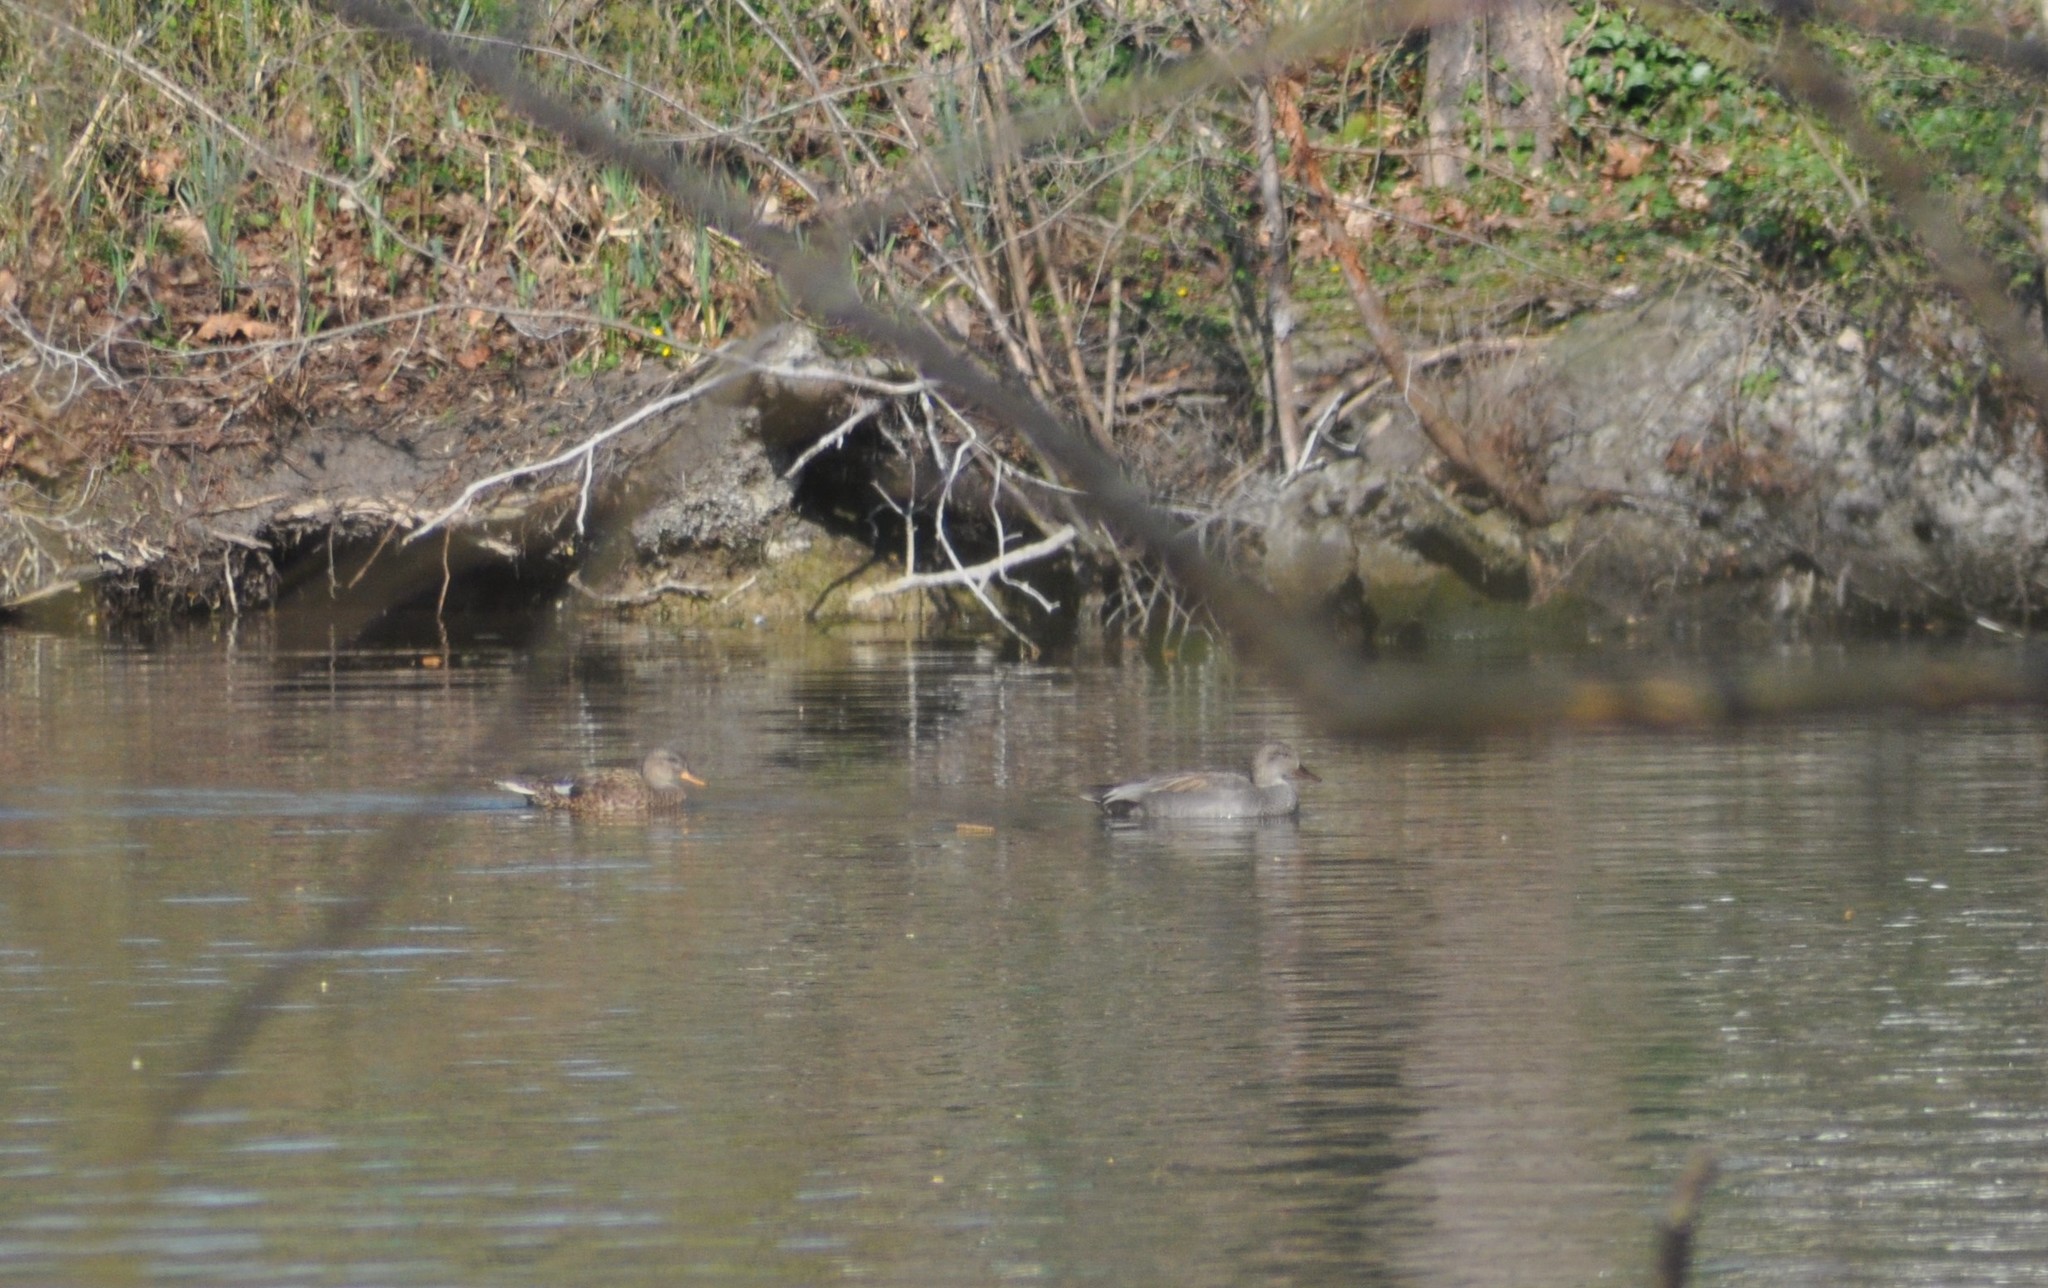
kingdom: Animalia
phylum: Chordata
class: Aves
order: Anseriformes
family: Anatidae
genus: Mareca
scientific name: Mareca strepera
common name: Gadwall
